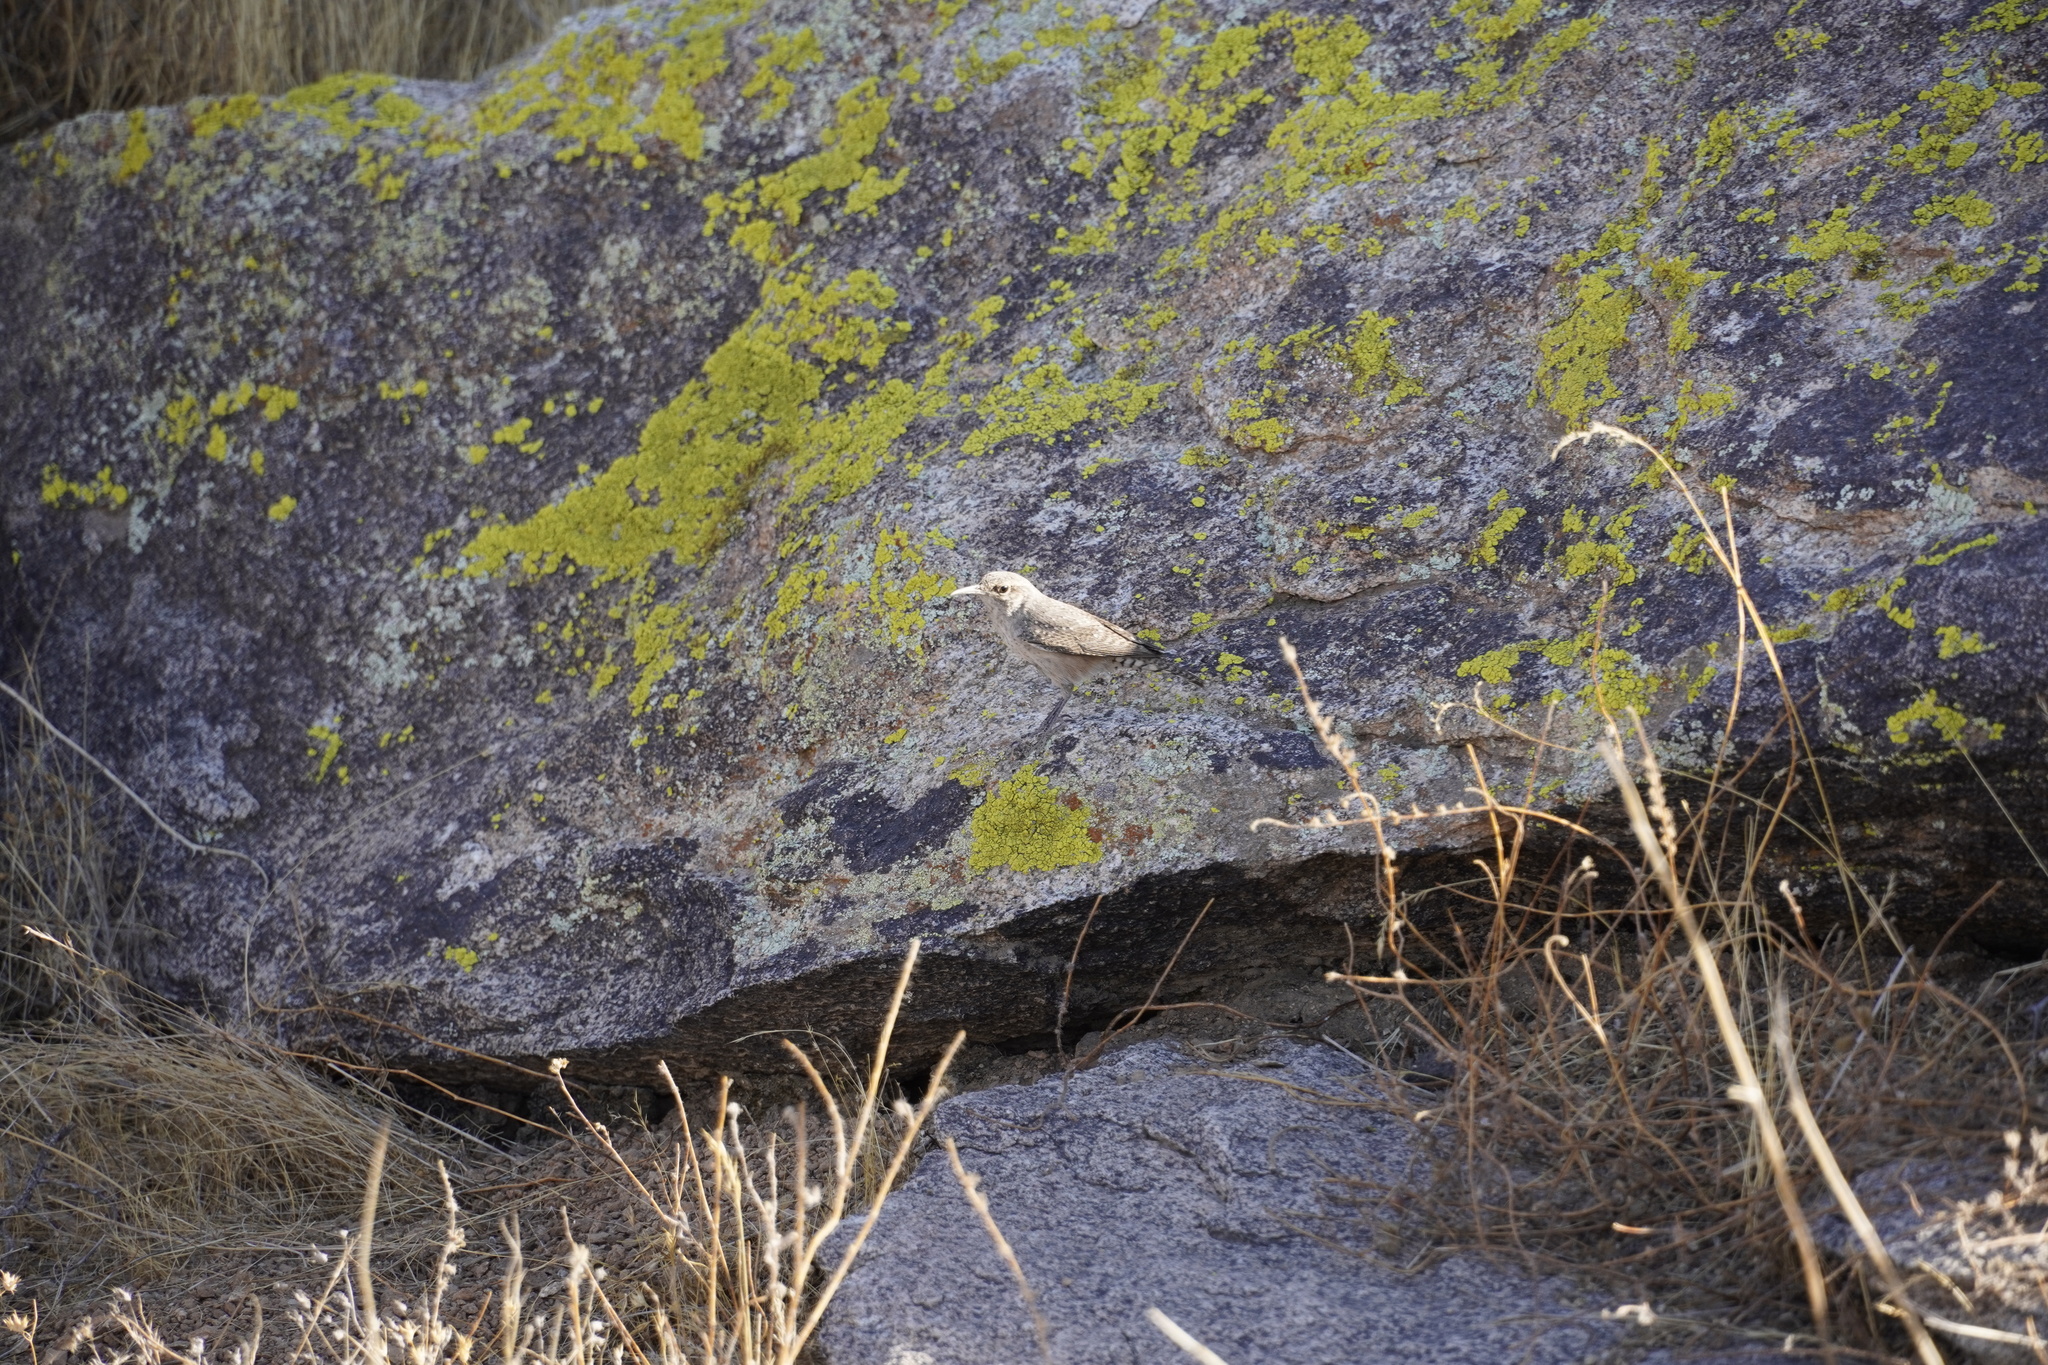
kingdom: Animalia
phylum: Chordata
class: Aves
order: Passeriformes
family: Troglodytidae
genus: Salpinctes
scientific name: Salpinctes obsoletus
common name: Rock wren
